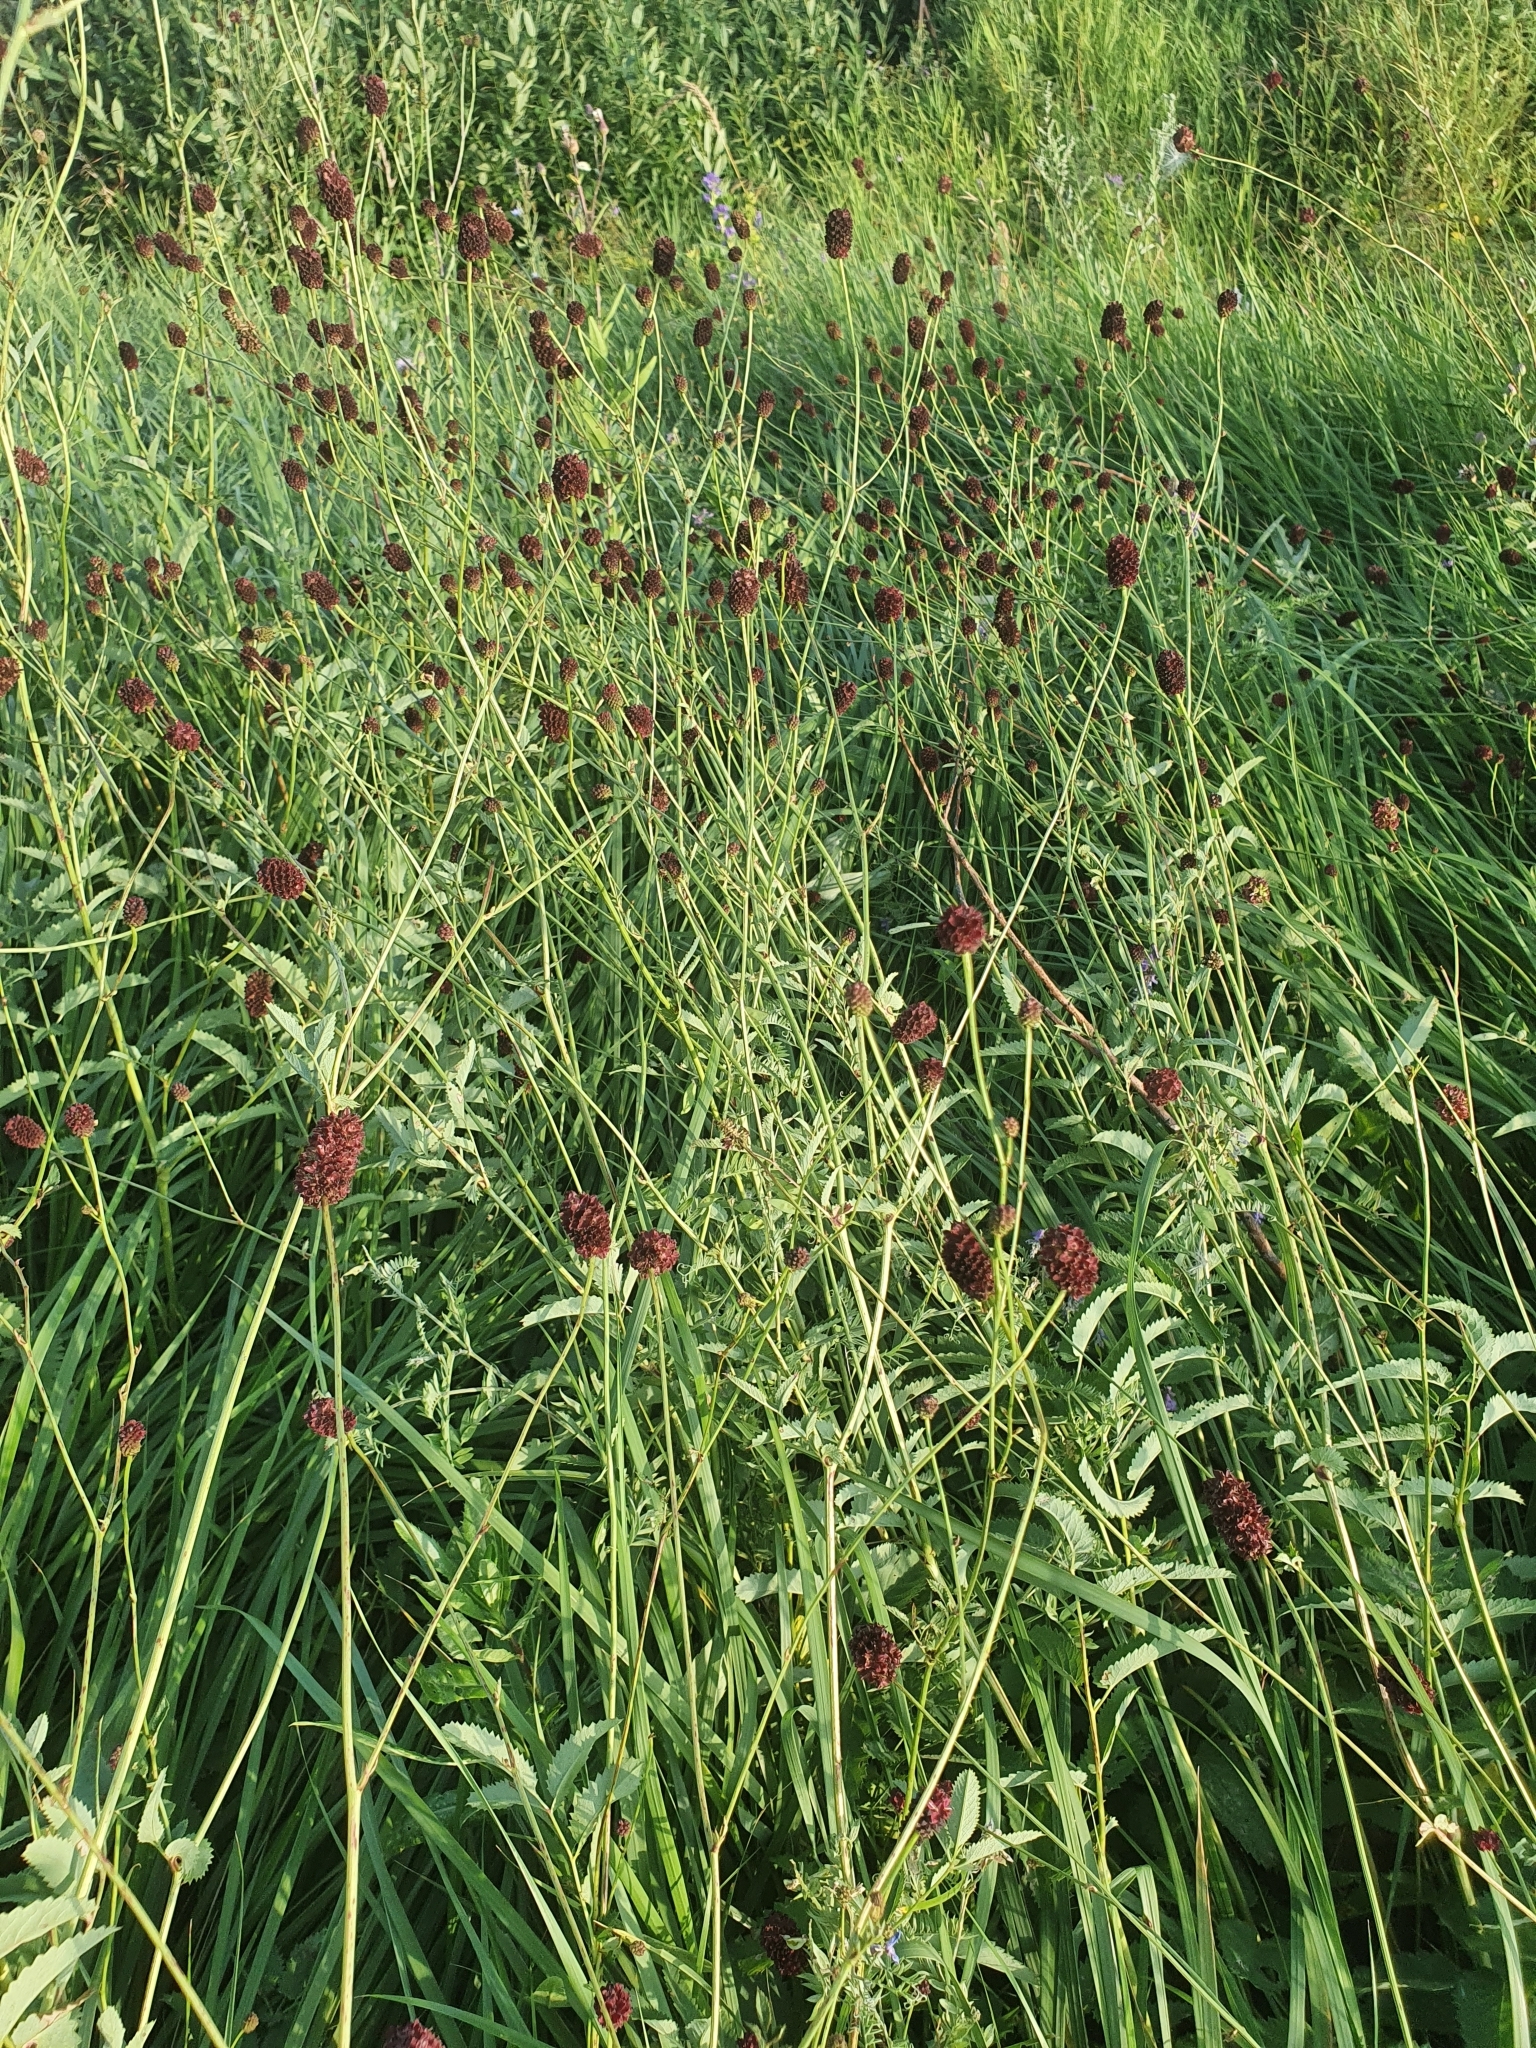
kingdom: Plantae
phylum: Tracheophyta
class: Magnoliopsida
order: Rosales
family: Rosaceae
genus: Sanguisorba
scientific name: Sanguisorba officinalis
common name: Great burnet
